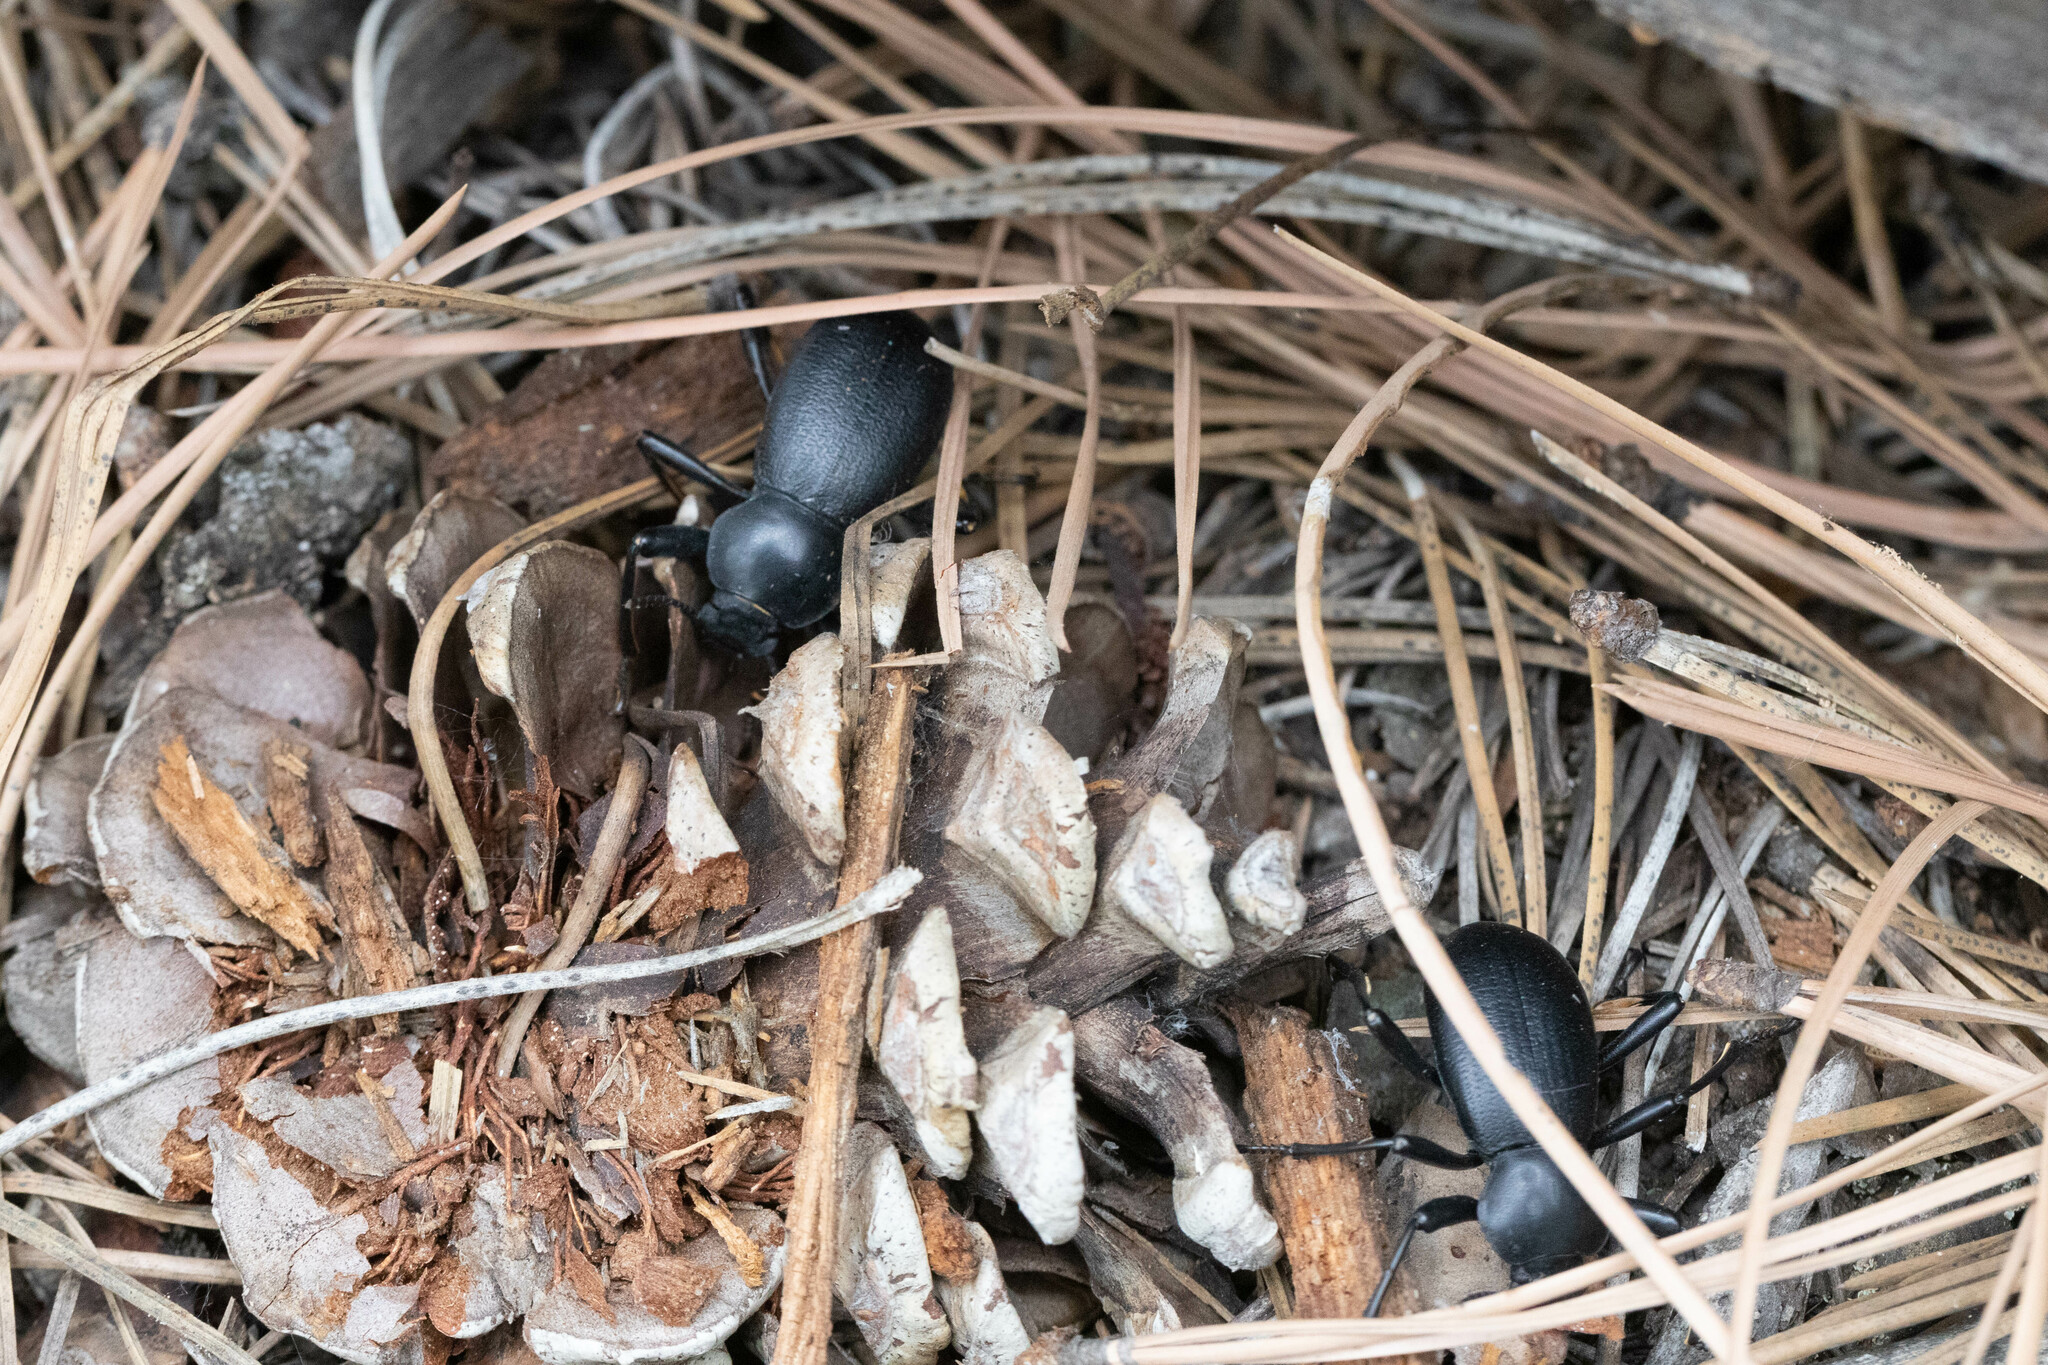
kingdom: Animalia
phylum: Arthropoda
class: Insecta
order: Coleoptera
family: Tenebrionidae
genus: Coelocnemis
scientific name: Coelocnemis dilaticollis
